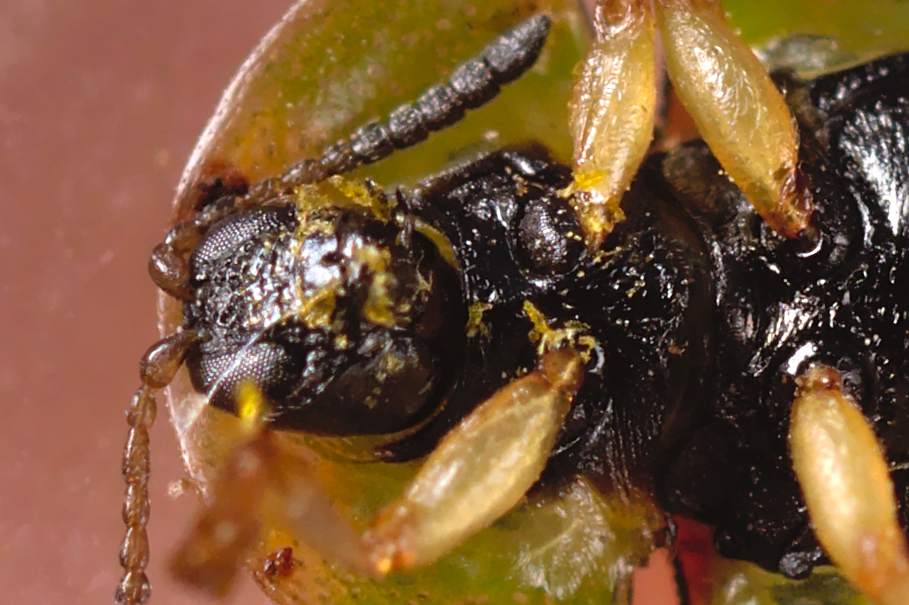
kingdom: Animalia
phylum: Arthropoda
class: Insecta
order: Coleoptera
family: Chrysomelidae
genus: Cassida
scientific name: Cassida denticollis
